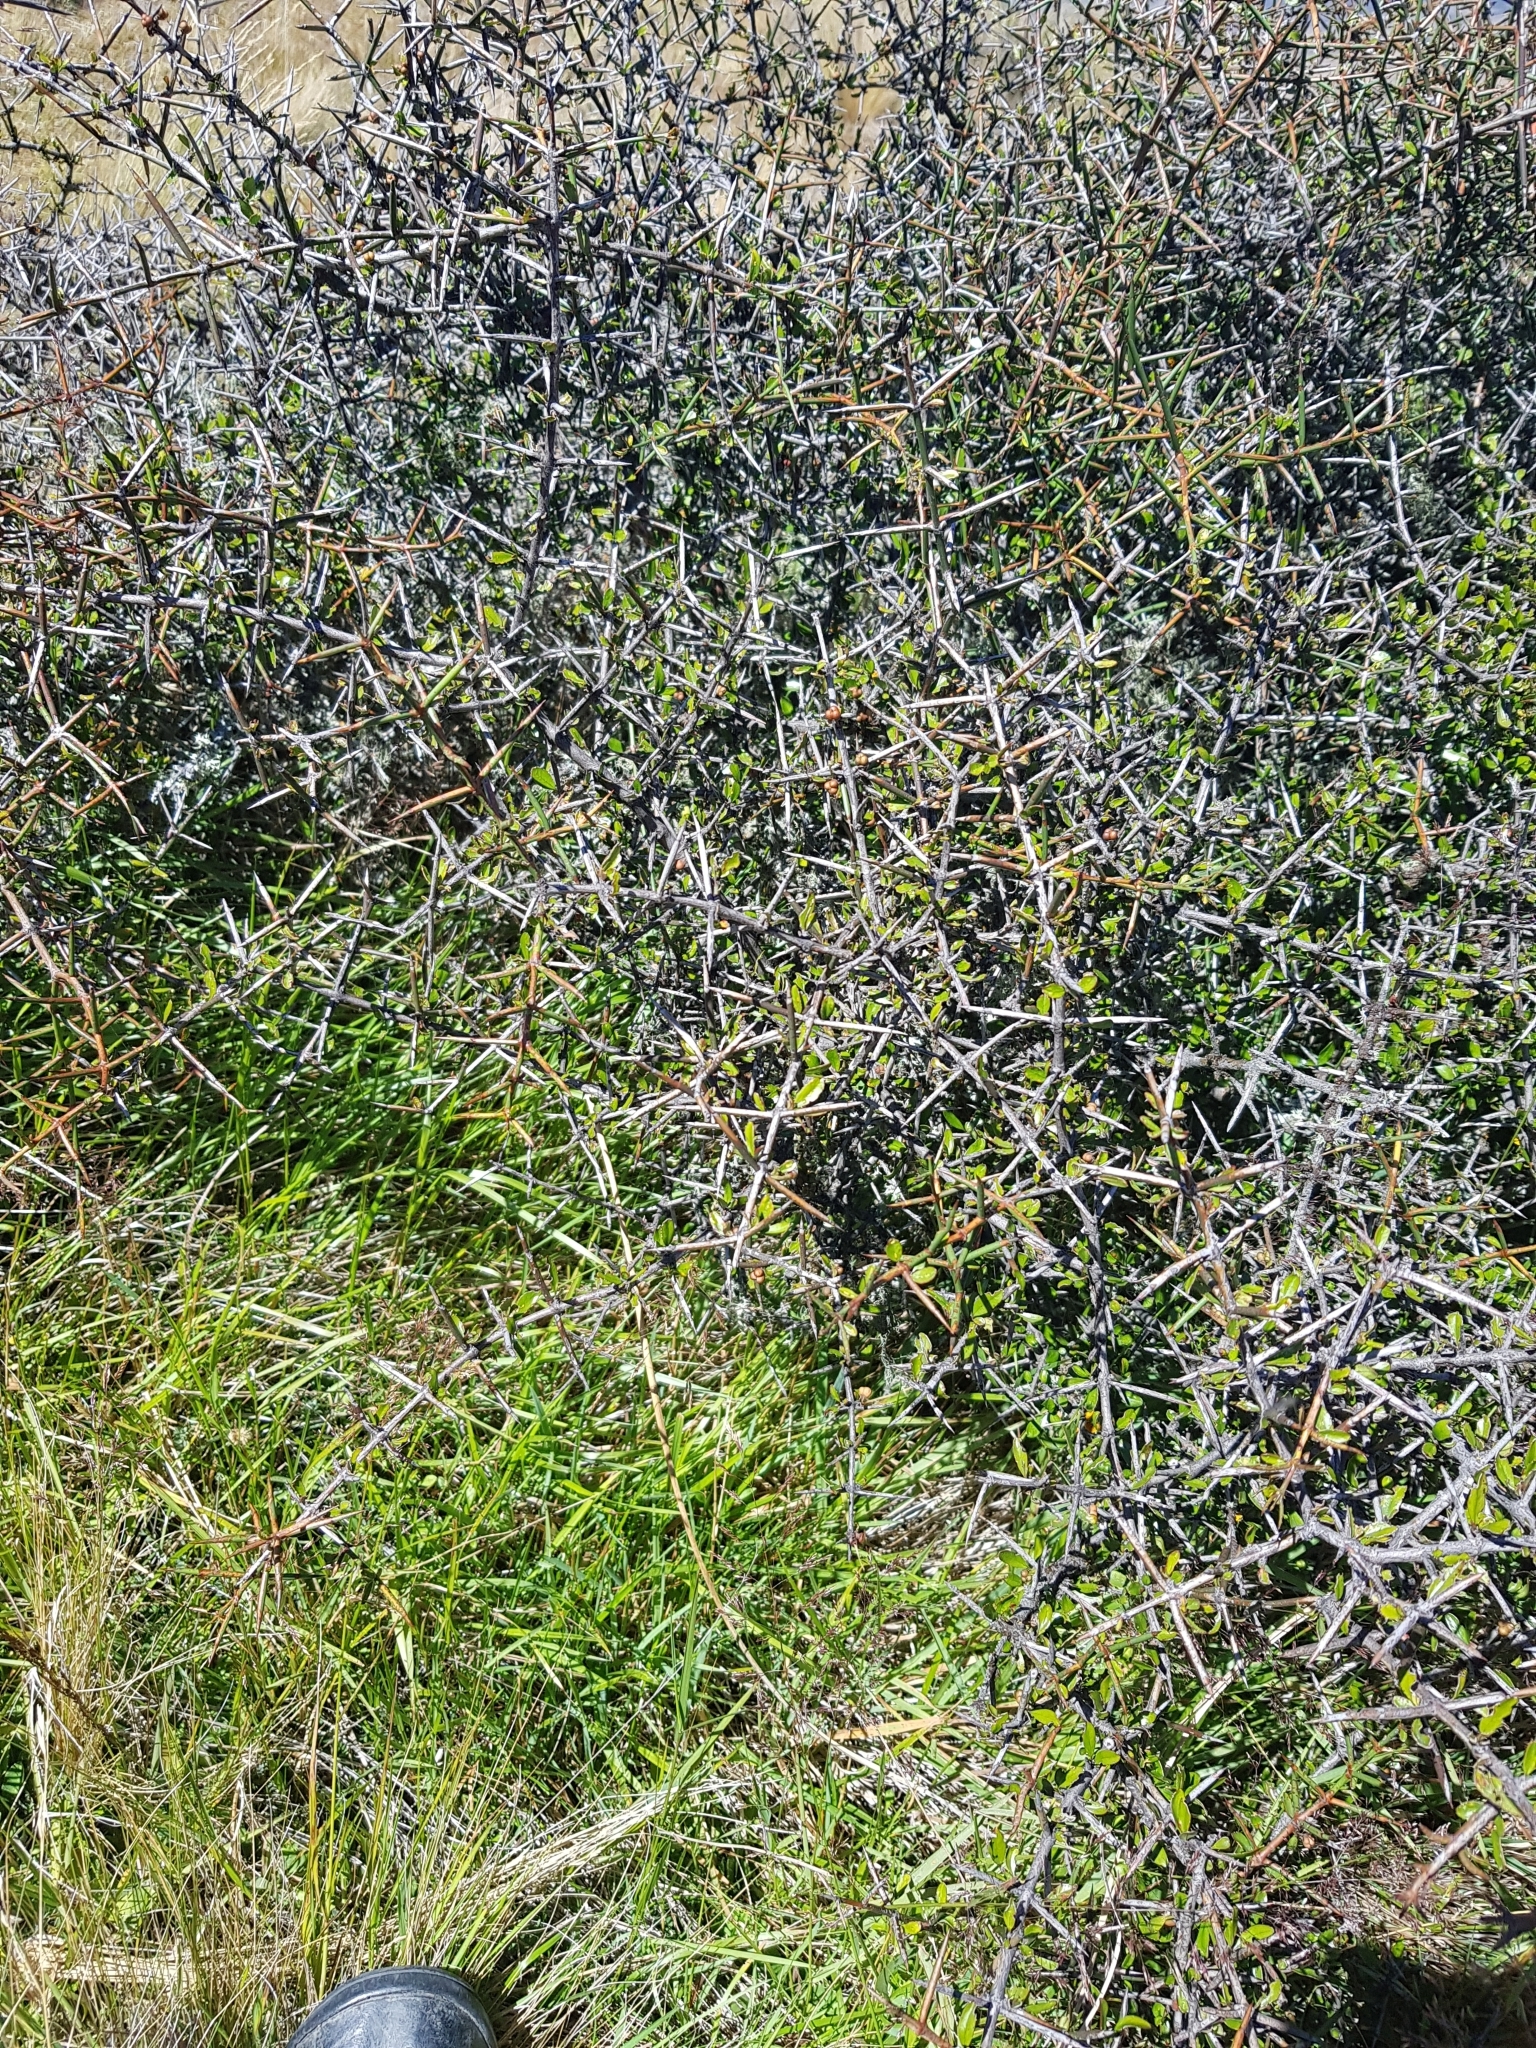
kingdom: Plantae
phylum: Tracheophyta
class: Magnoliopsida
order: Rosales
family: Rhamnaceae
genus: Discaria
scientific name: Discaria toumatou
